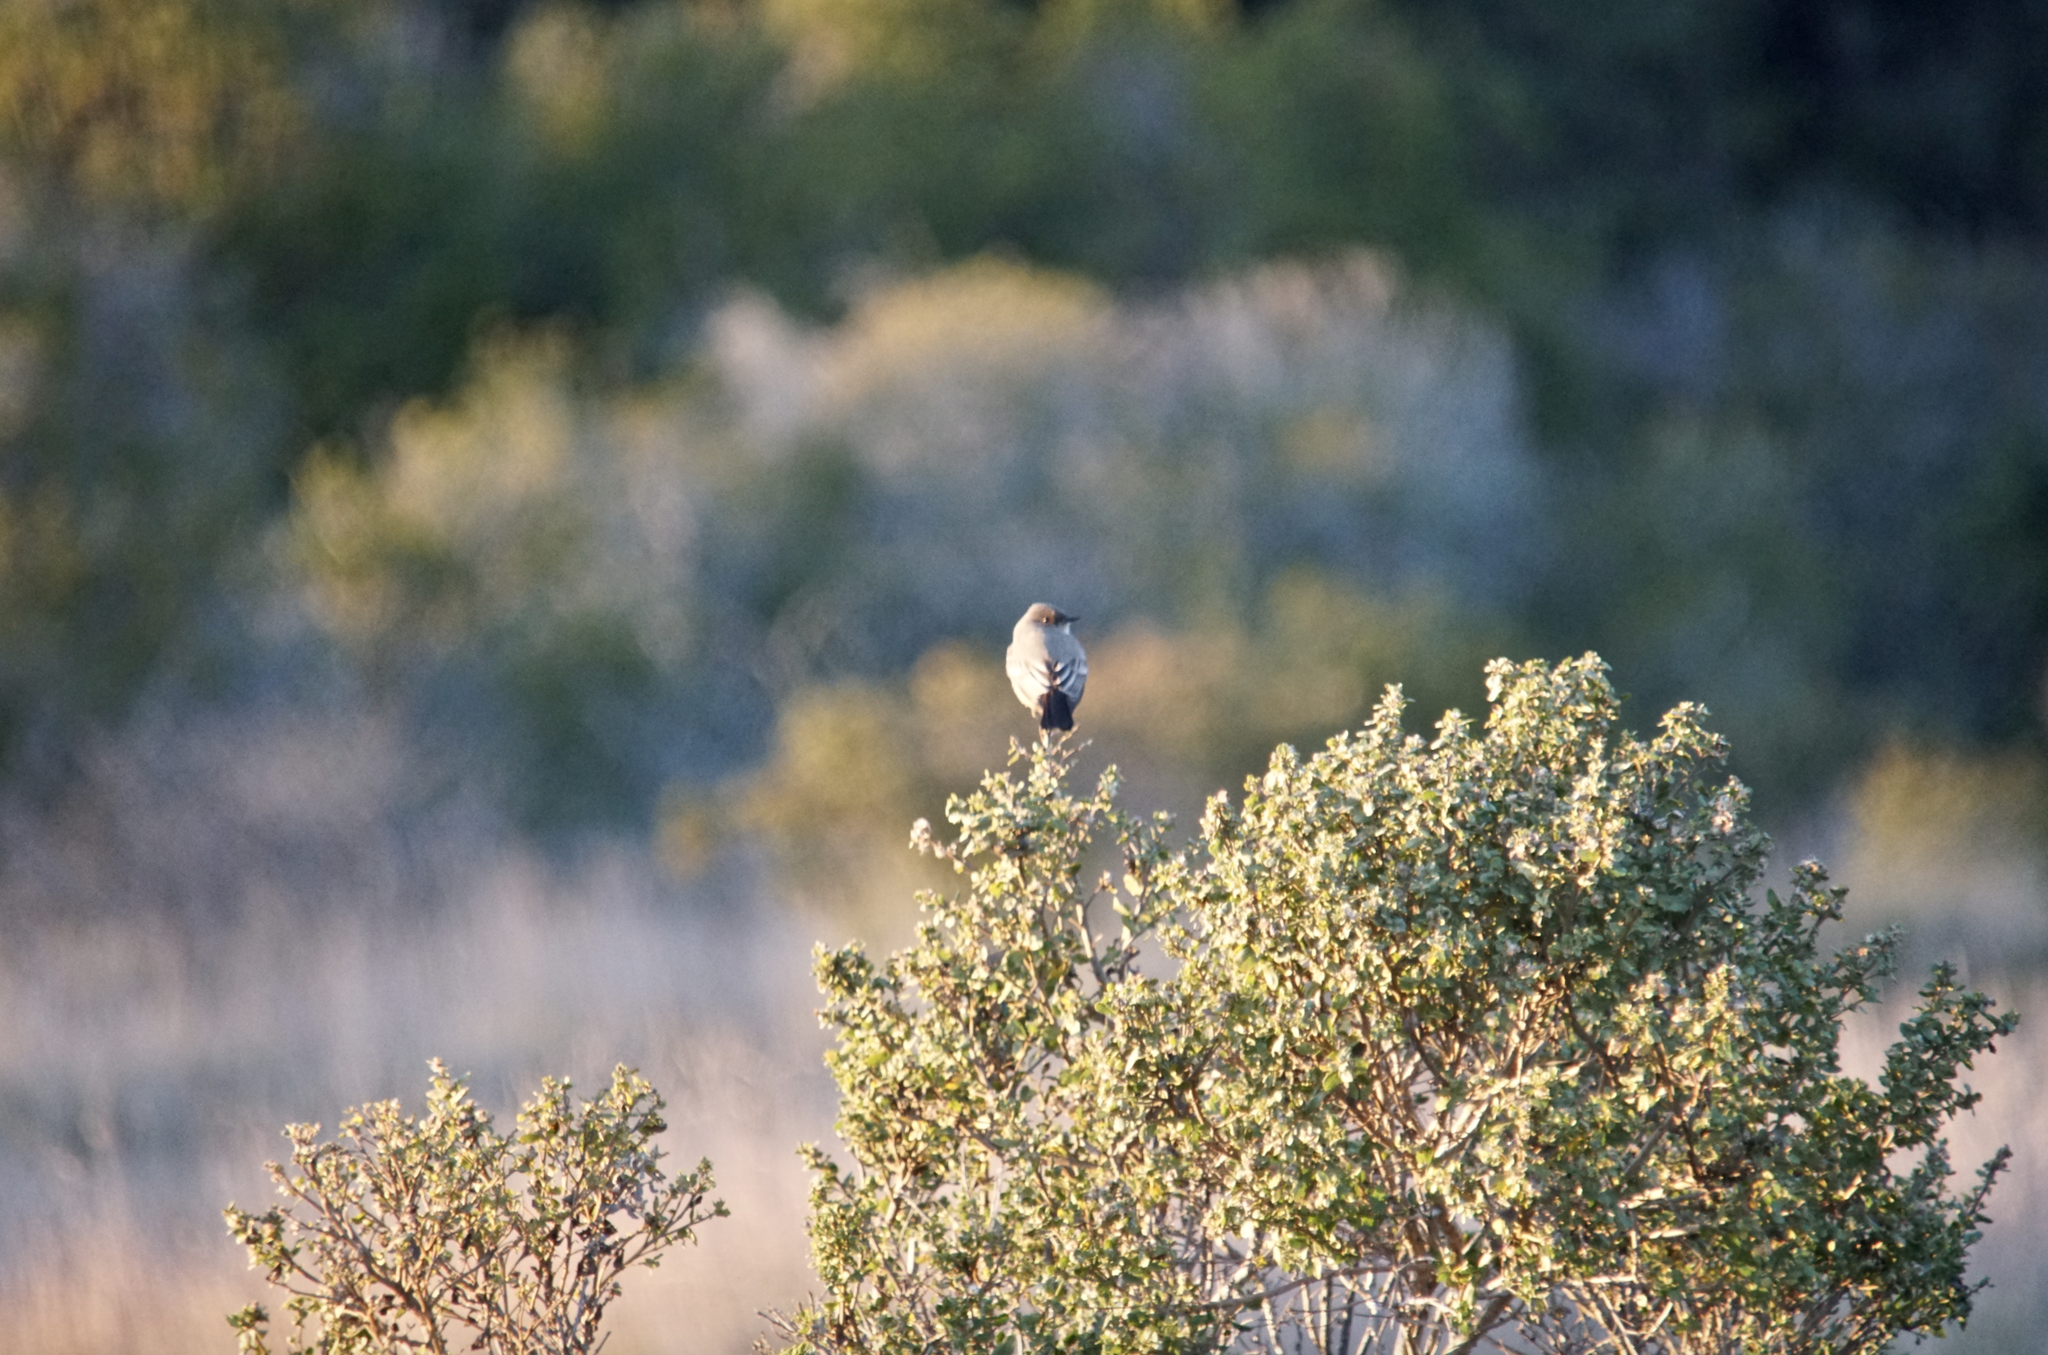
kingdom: Animalia
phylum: Chordata
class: Aves
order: Passeriformes
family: Tyrannidae
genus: Sayornis
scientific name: Sayornis saya
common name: Say's phoebe
